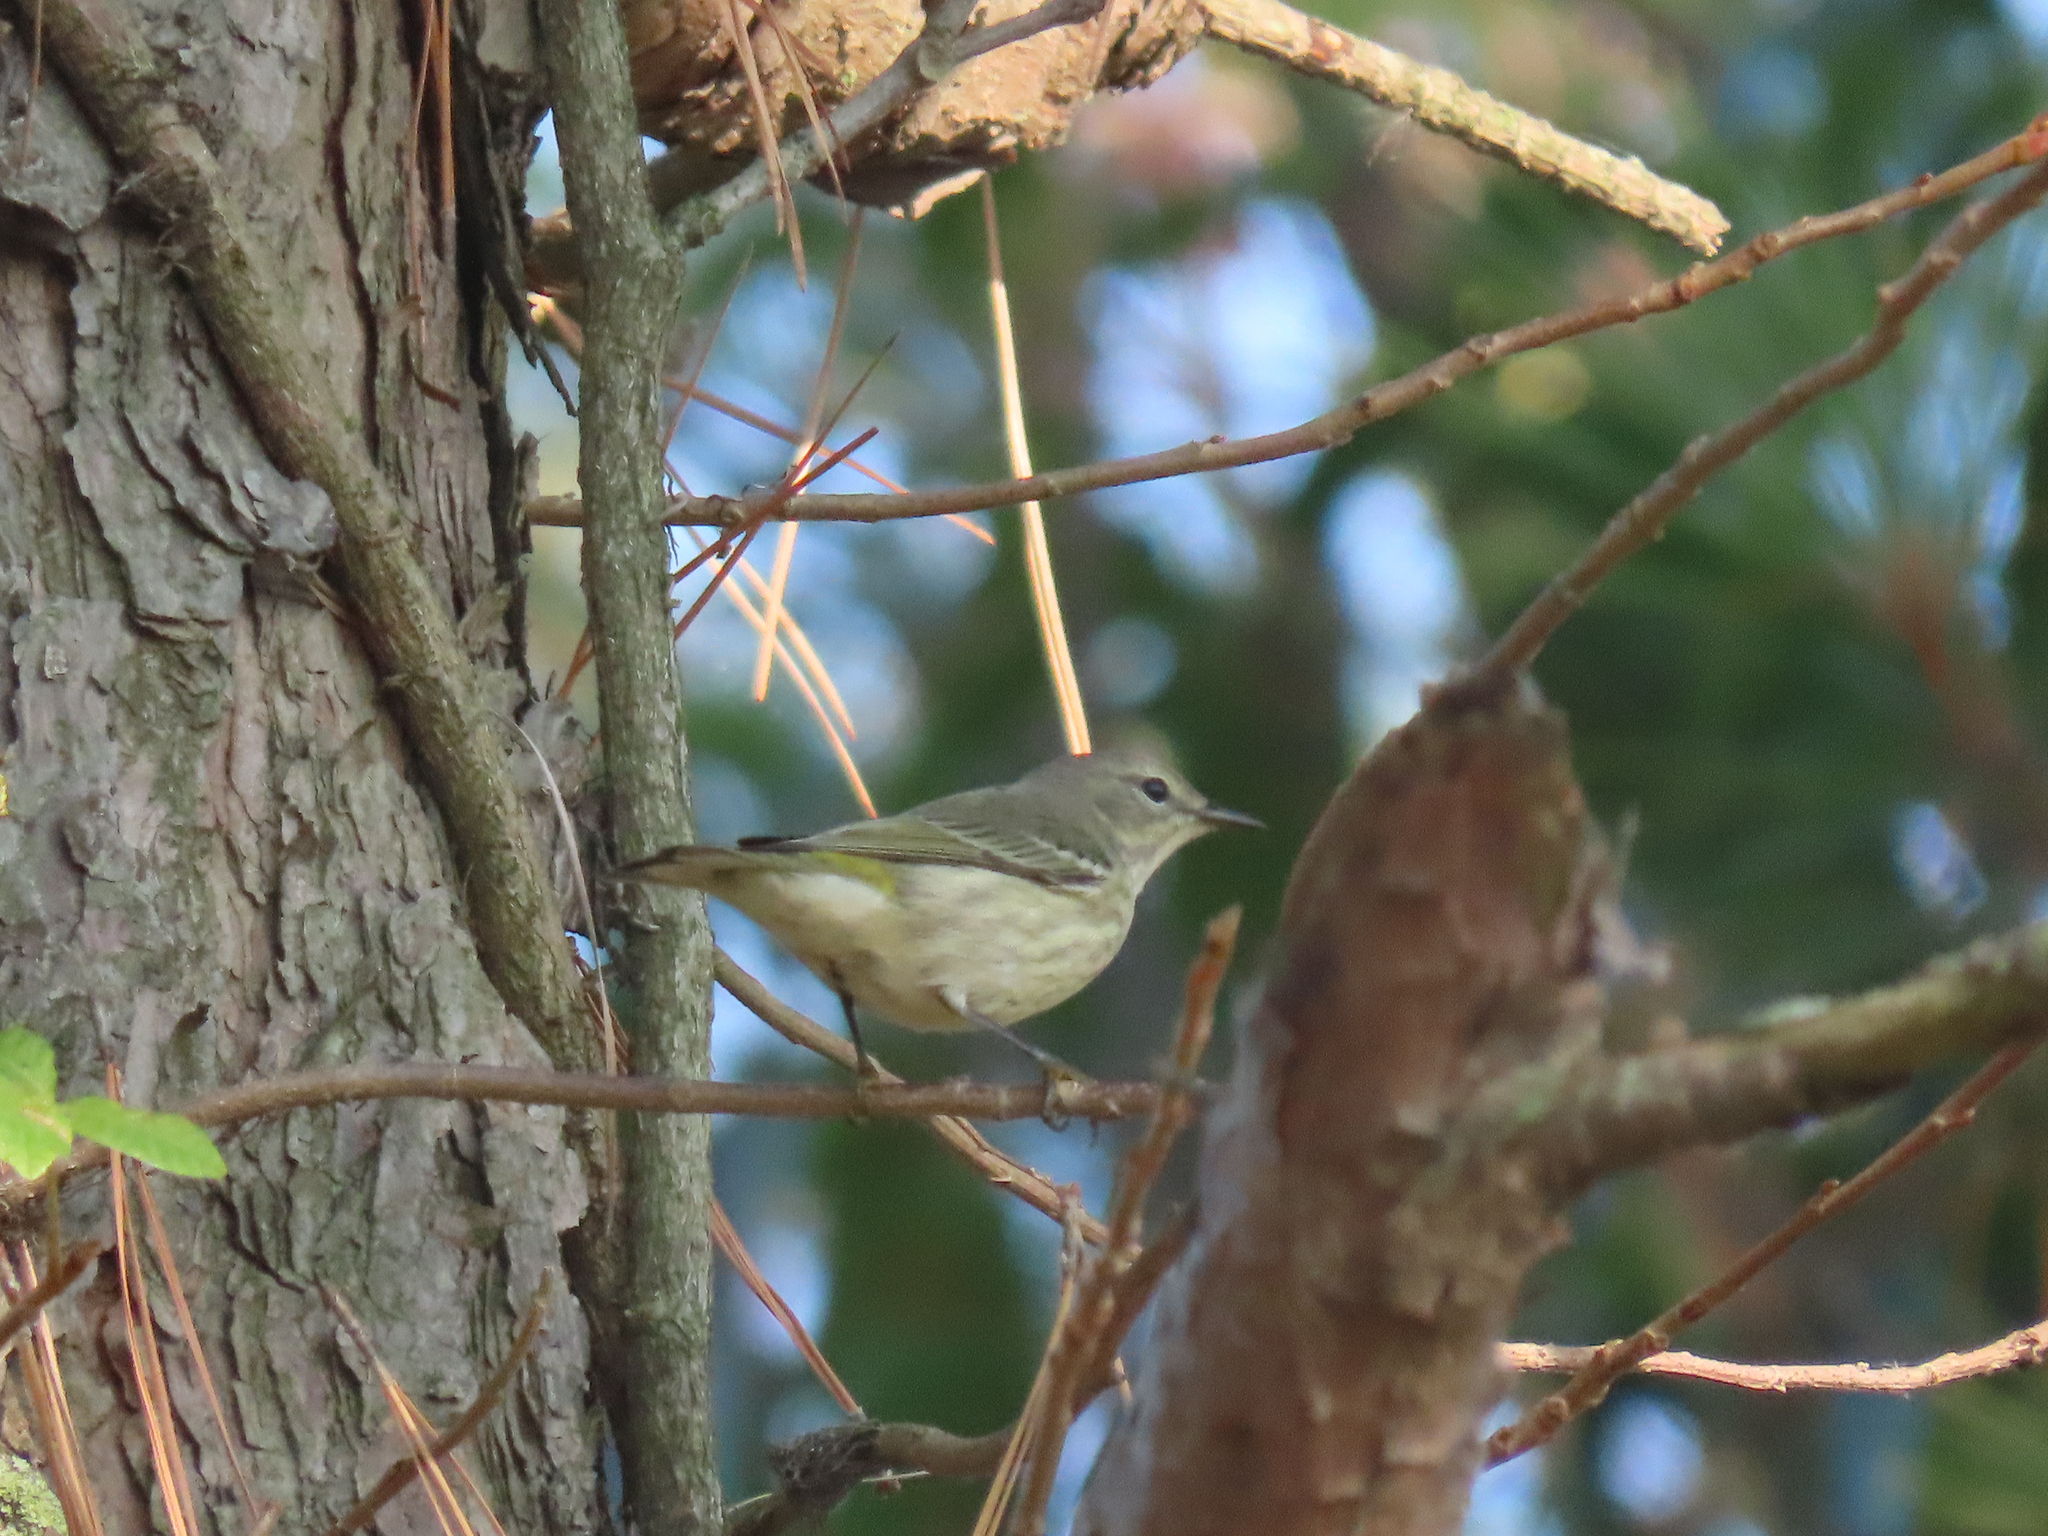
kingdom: Animalia
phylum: Chordata
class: Aves
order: Passeriformes
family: Parulidae
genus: Setophaga
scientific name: Setophaga tigrina
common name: Cape may warbler
